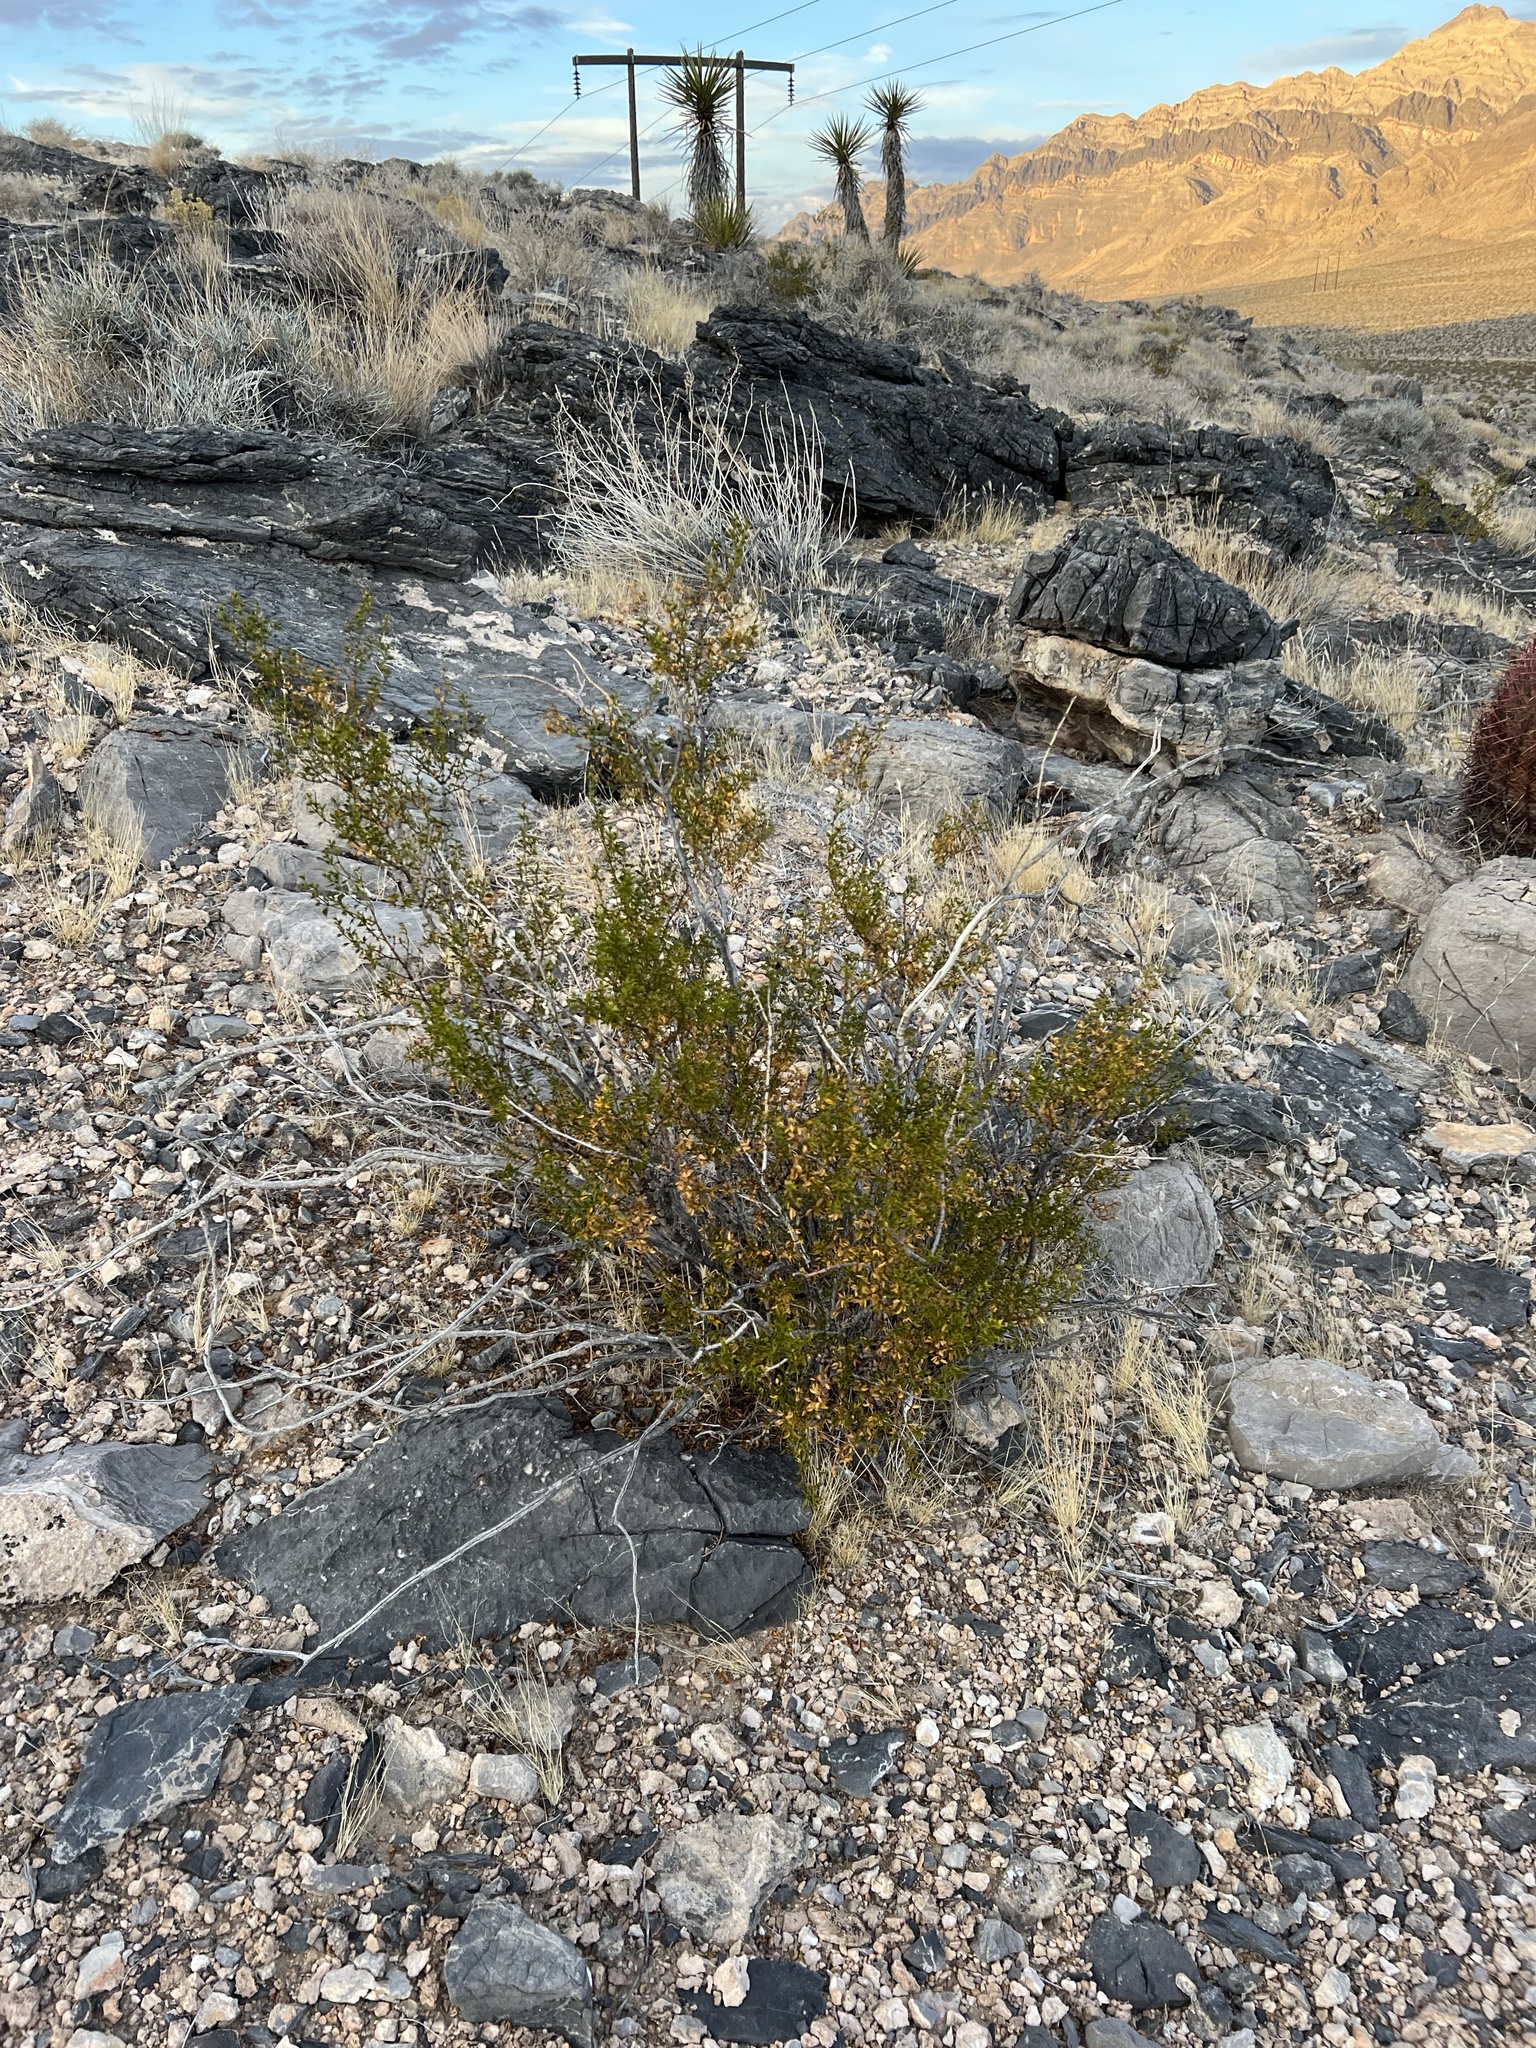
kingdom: Plantae
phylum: Tracheophyta
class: Magnoliopsida
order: Zygophyllales
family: Zygophyllaceae
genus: Larrea
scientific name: Larrea tridentata
